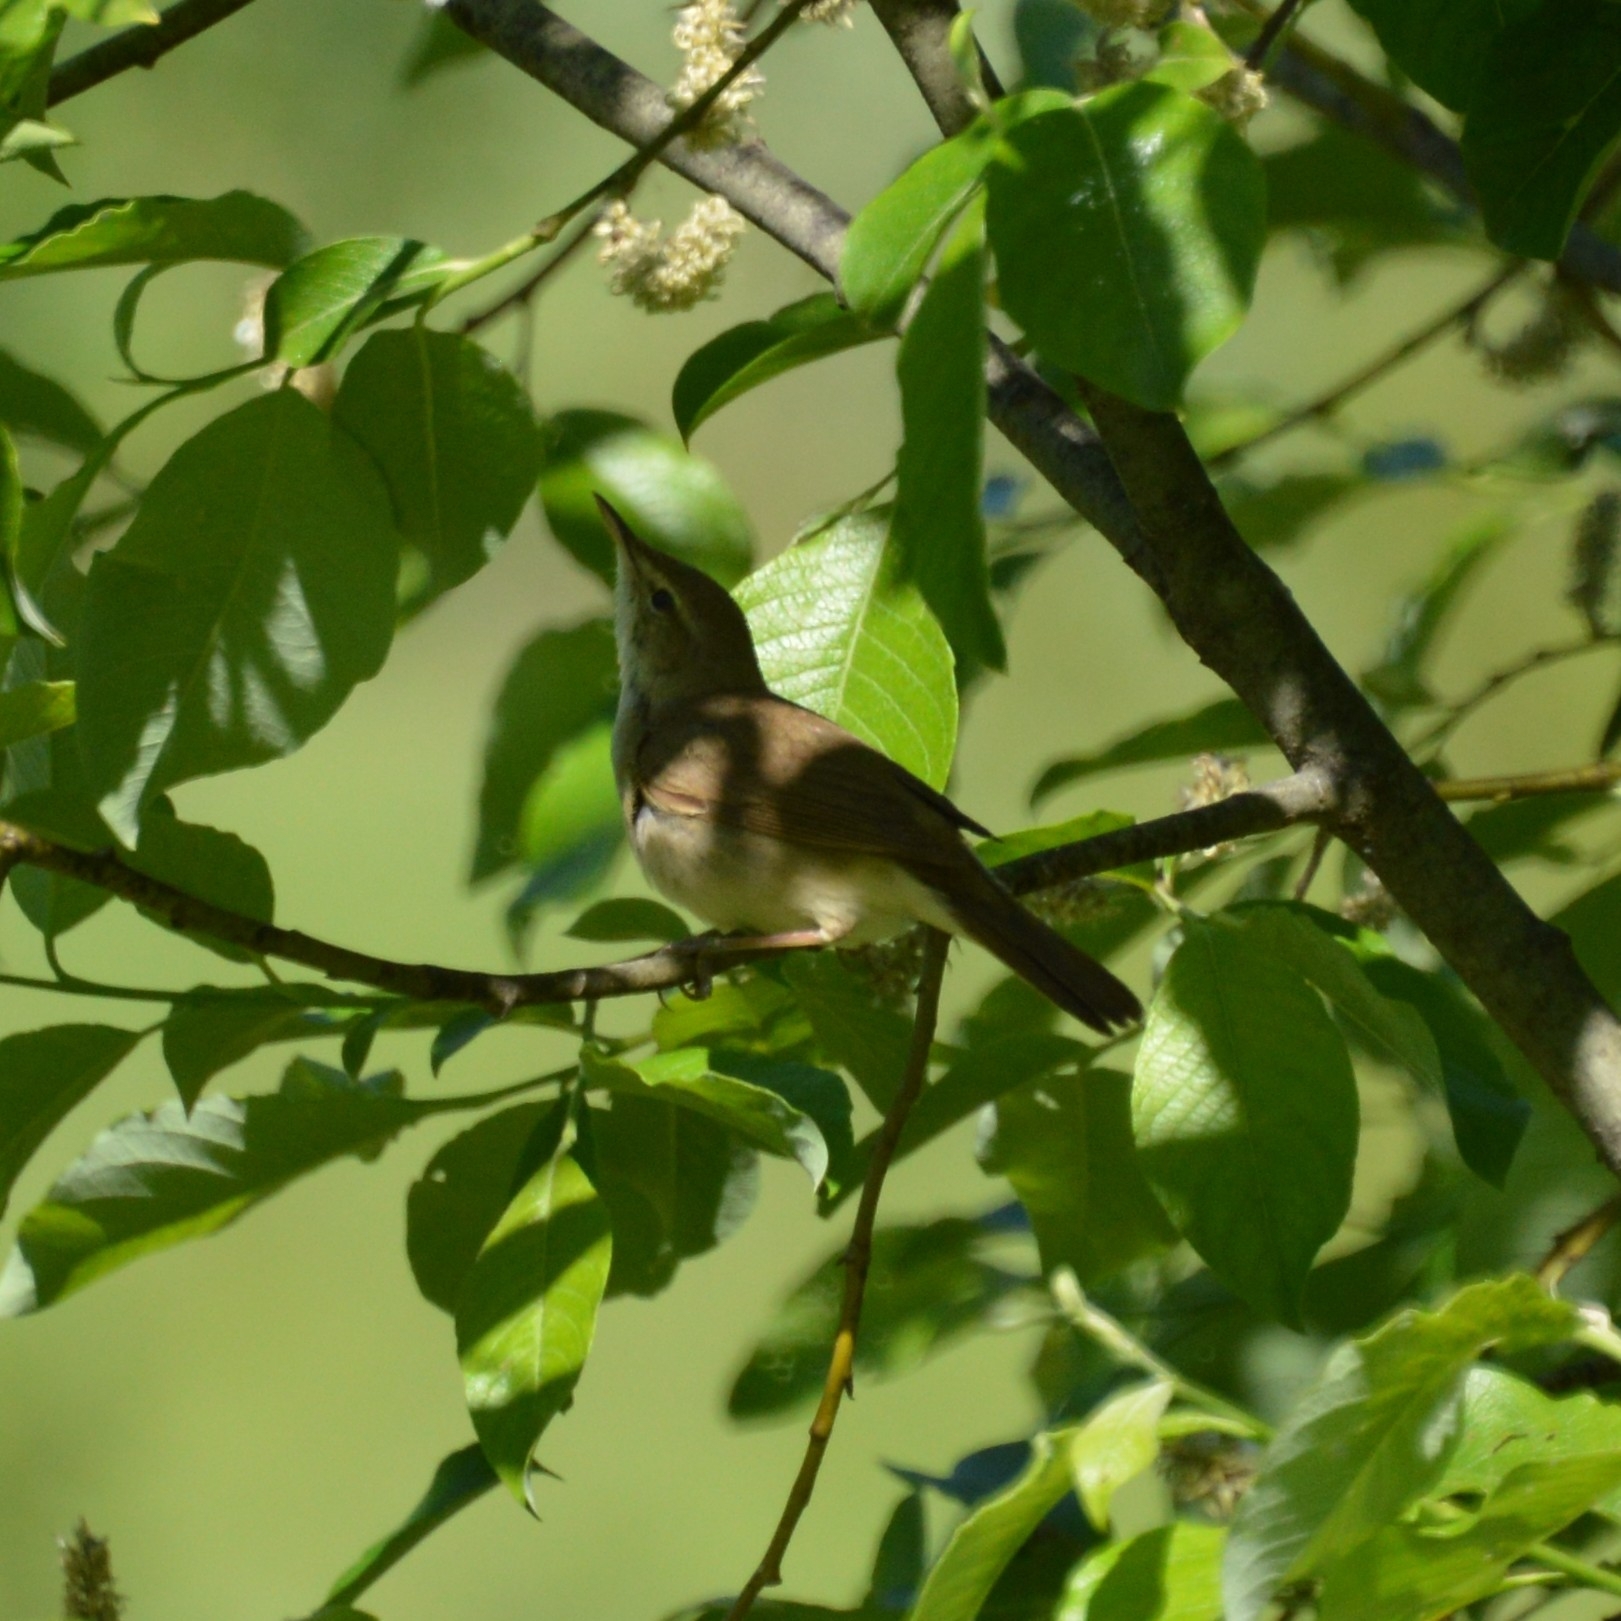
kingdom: Animalia
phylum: Chordata
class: Aves
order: Passeriformes
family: Acrocephalidae
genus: Acrocephalus
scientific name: Acrocephalus dumetorum
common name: Blyth's reed warbler
